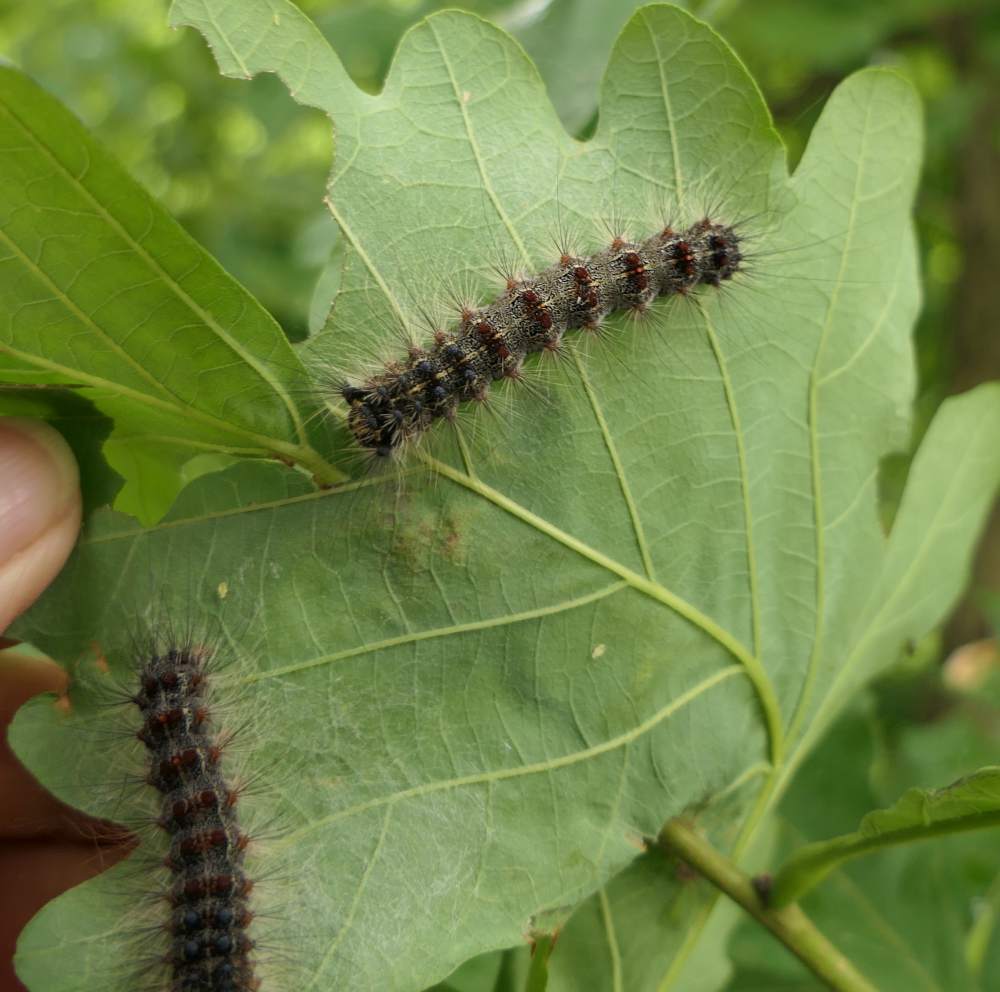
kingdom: Animalia
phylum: Arthropoda
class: Insecta
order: Lepidoptera
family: Erebidae
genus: Lymantria
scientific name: Lymantria dispar
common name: Gypsy moth
